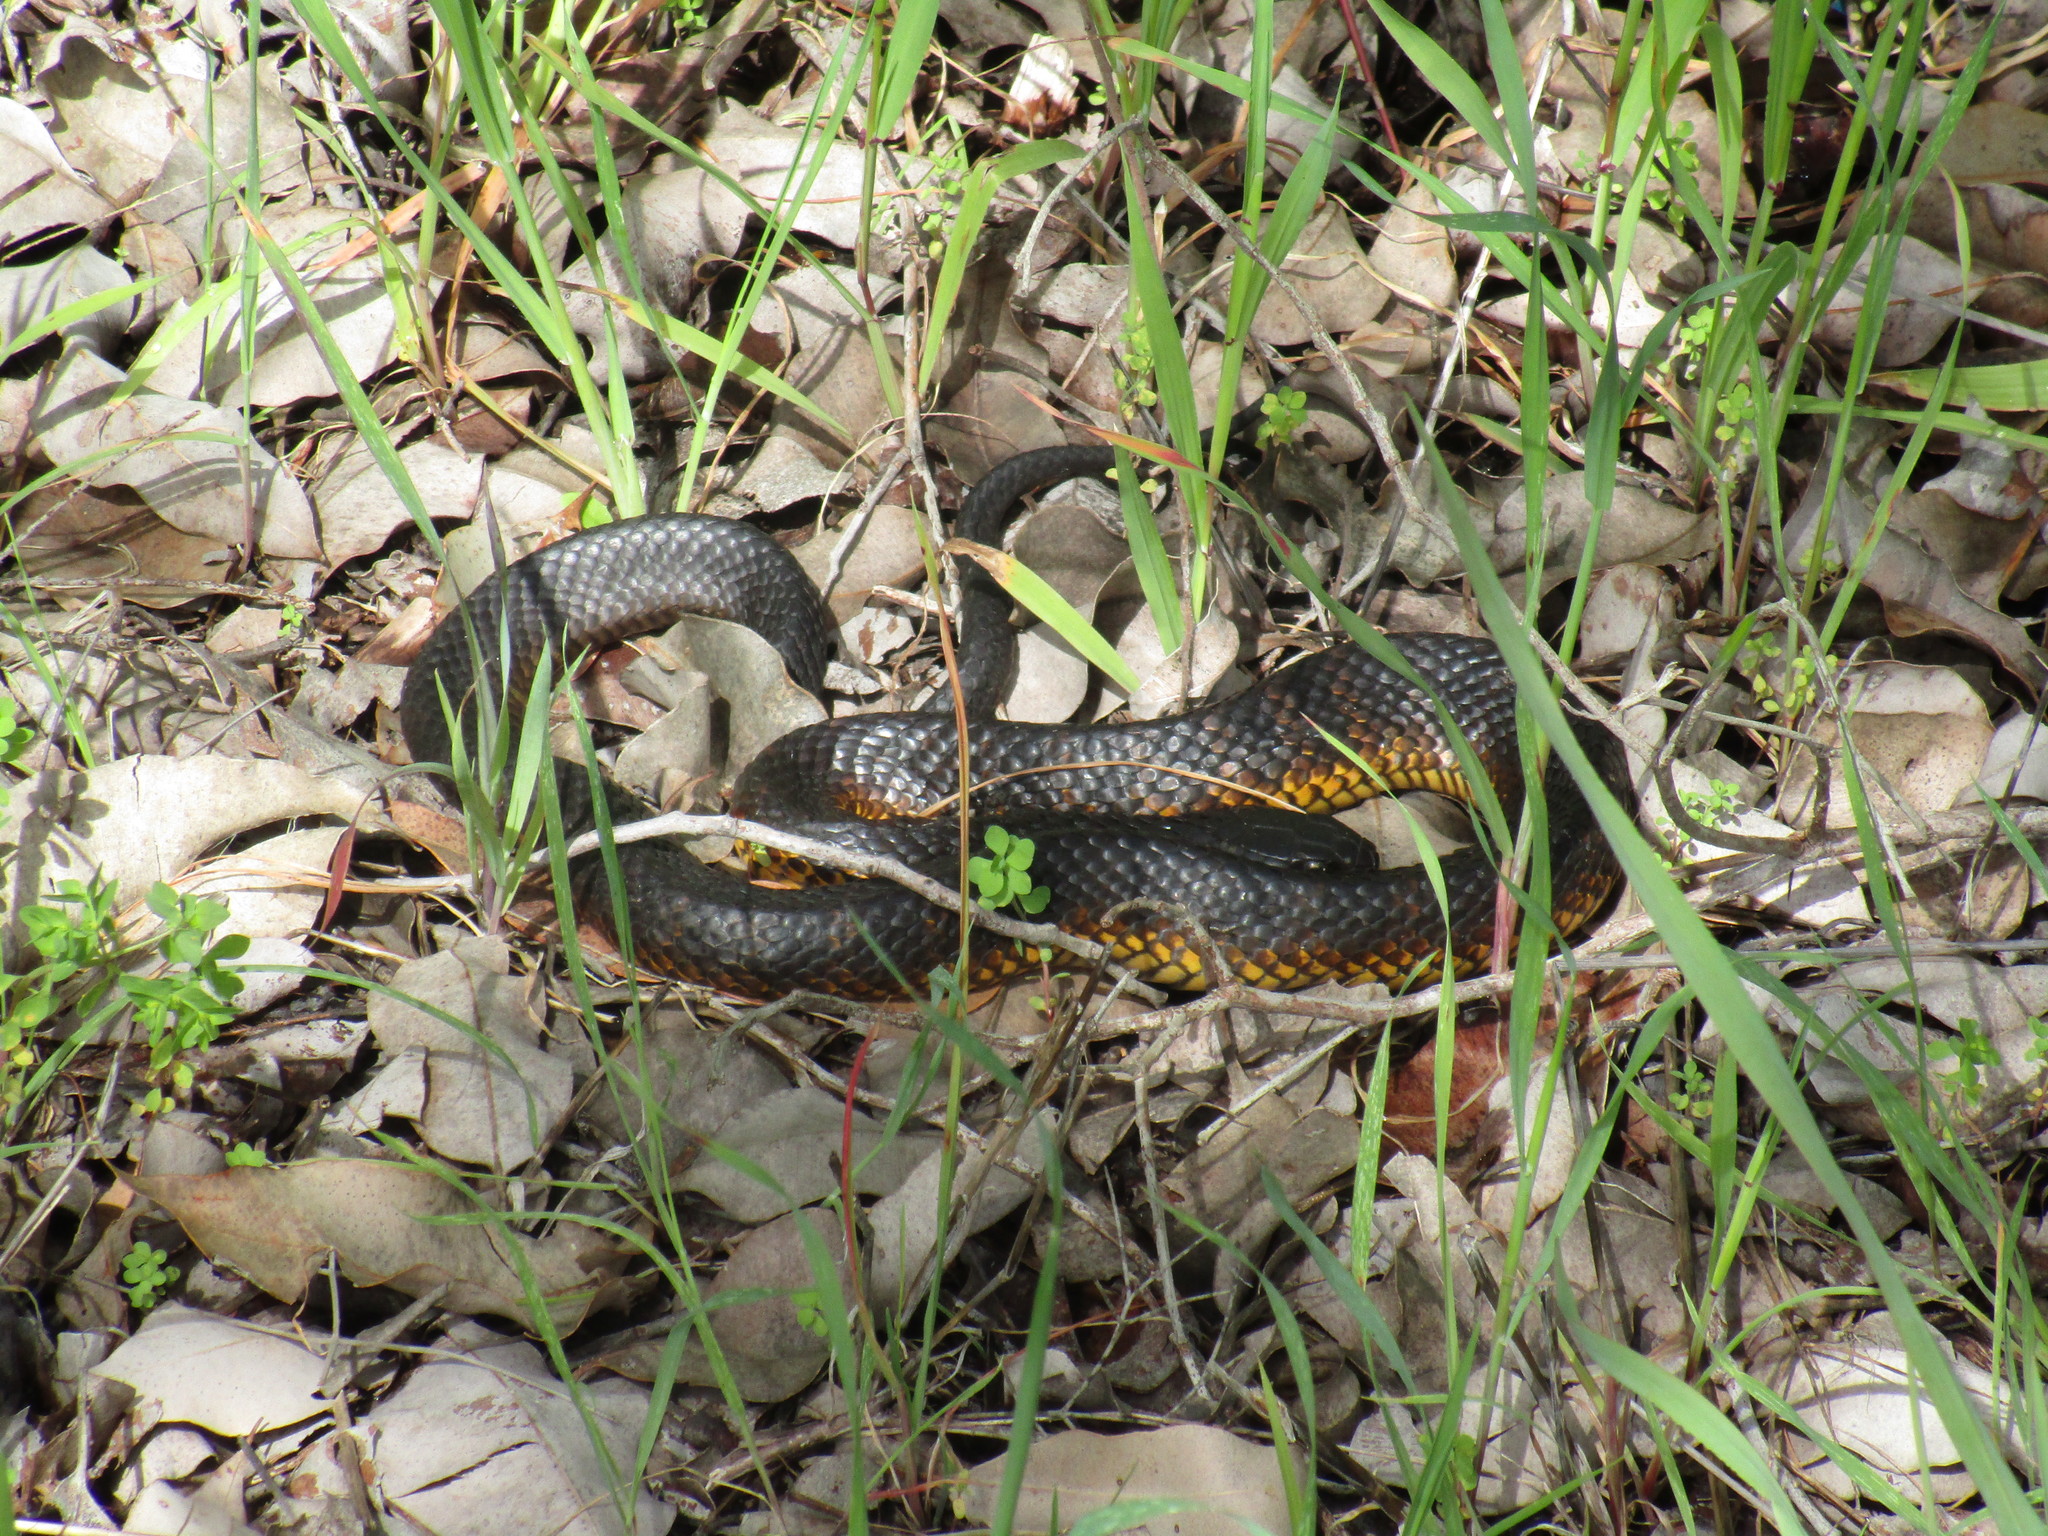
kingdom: Animalia
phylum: Chordata
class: Squamata
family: Elapidae
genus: Notechis
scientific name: Notechis scutatus
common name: Mainland tiger snake
